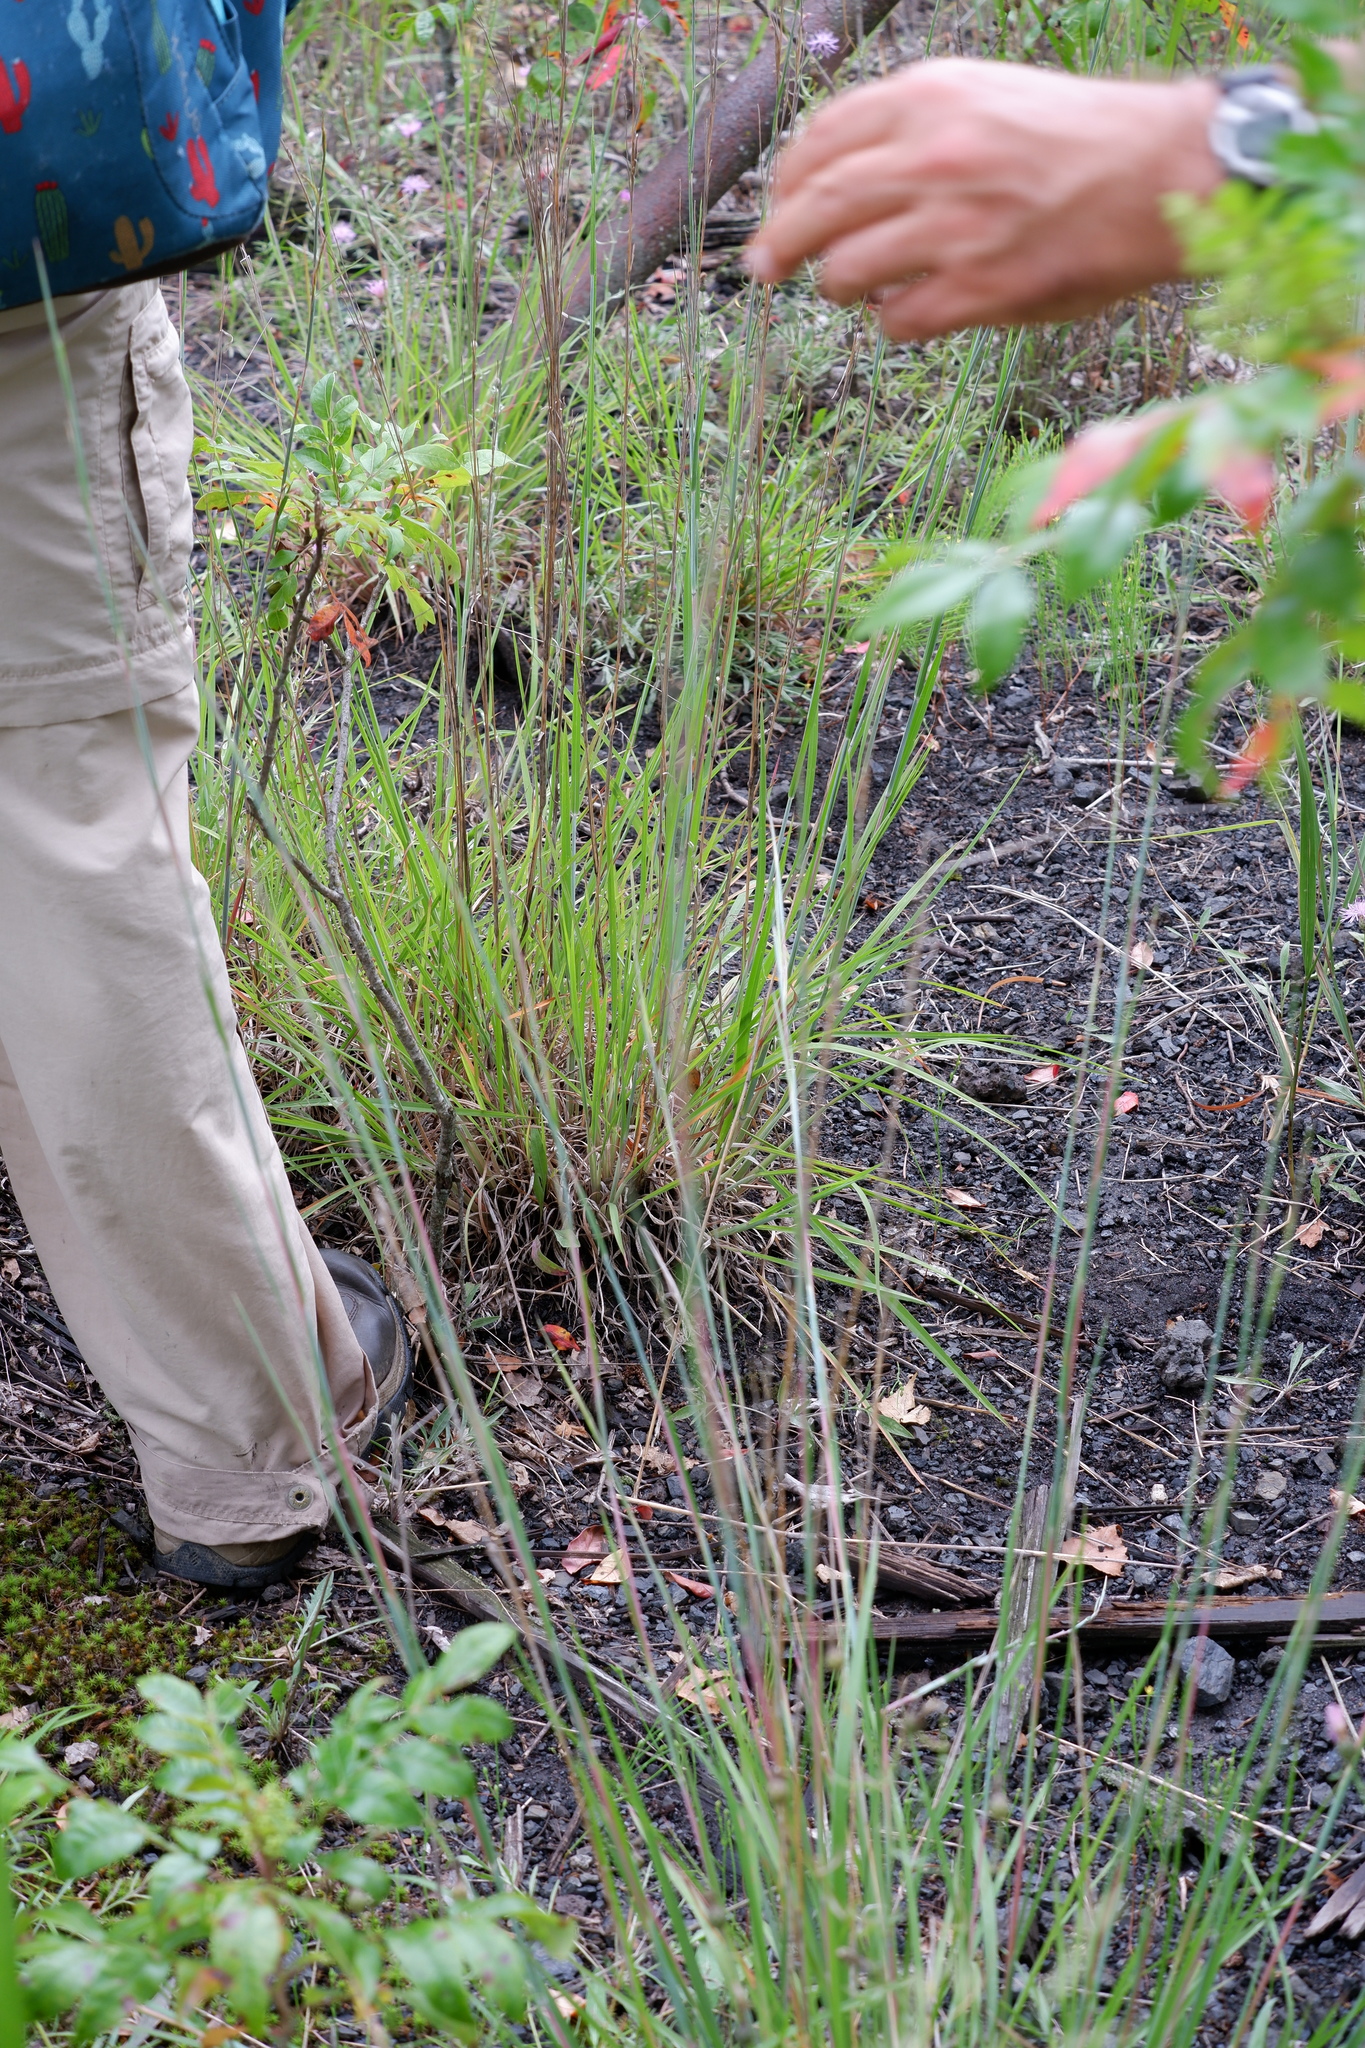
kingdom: Plantae
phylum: Tracheophyta
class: Liliopsida
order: Poales
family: Poaceae
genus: Schizachyrium
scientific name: Schizachyrium scoparium
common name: Little bluestem
